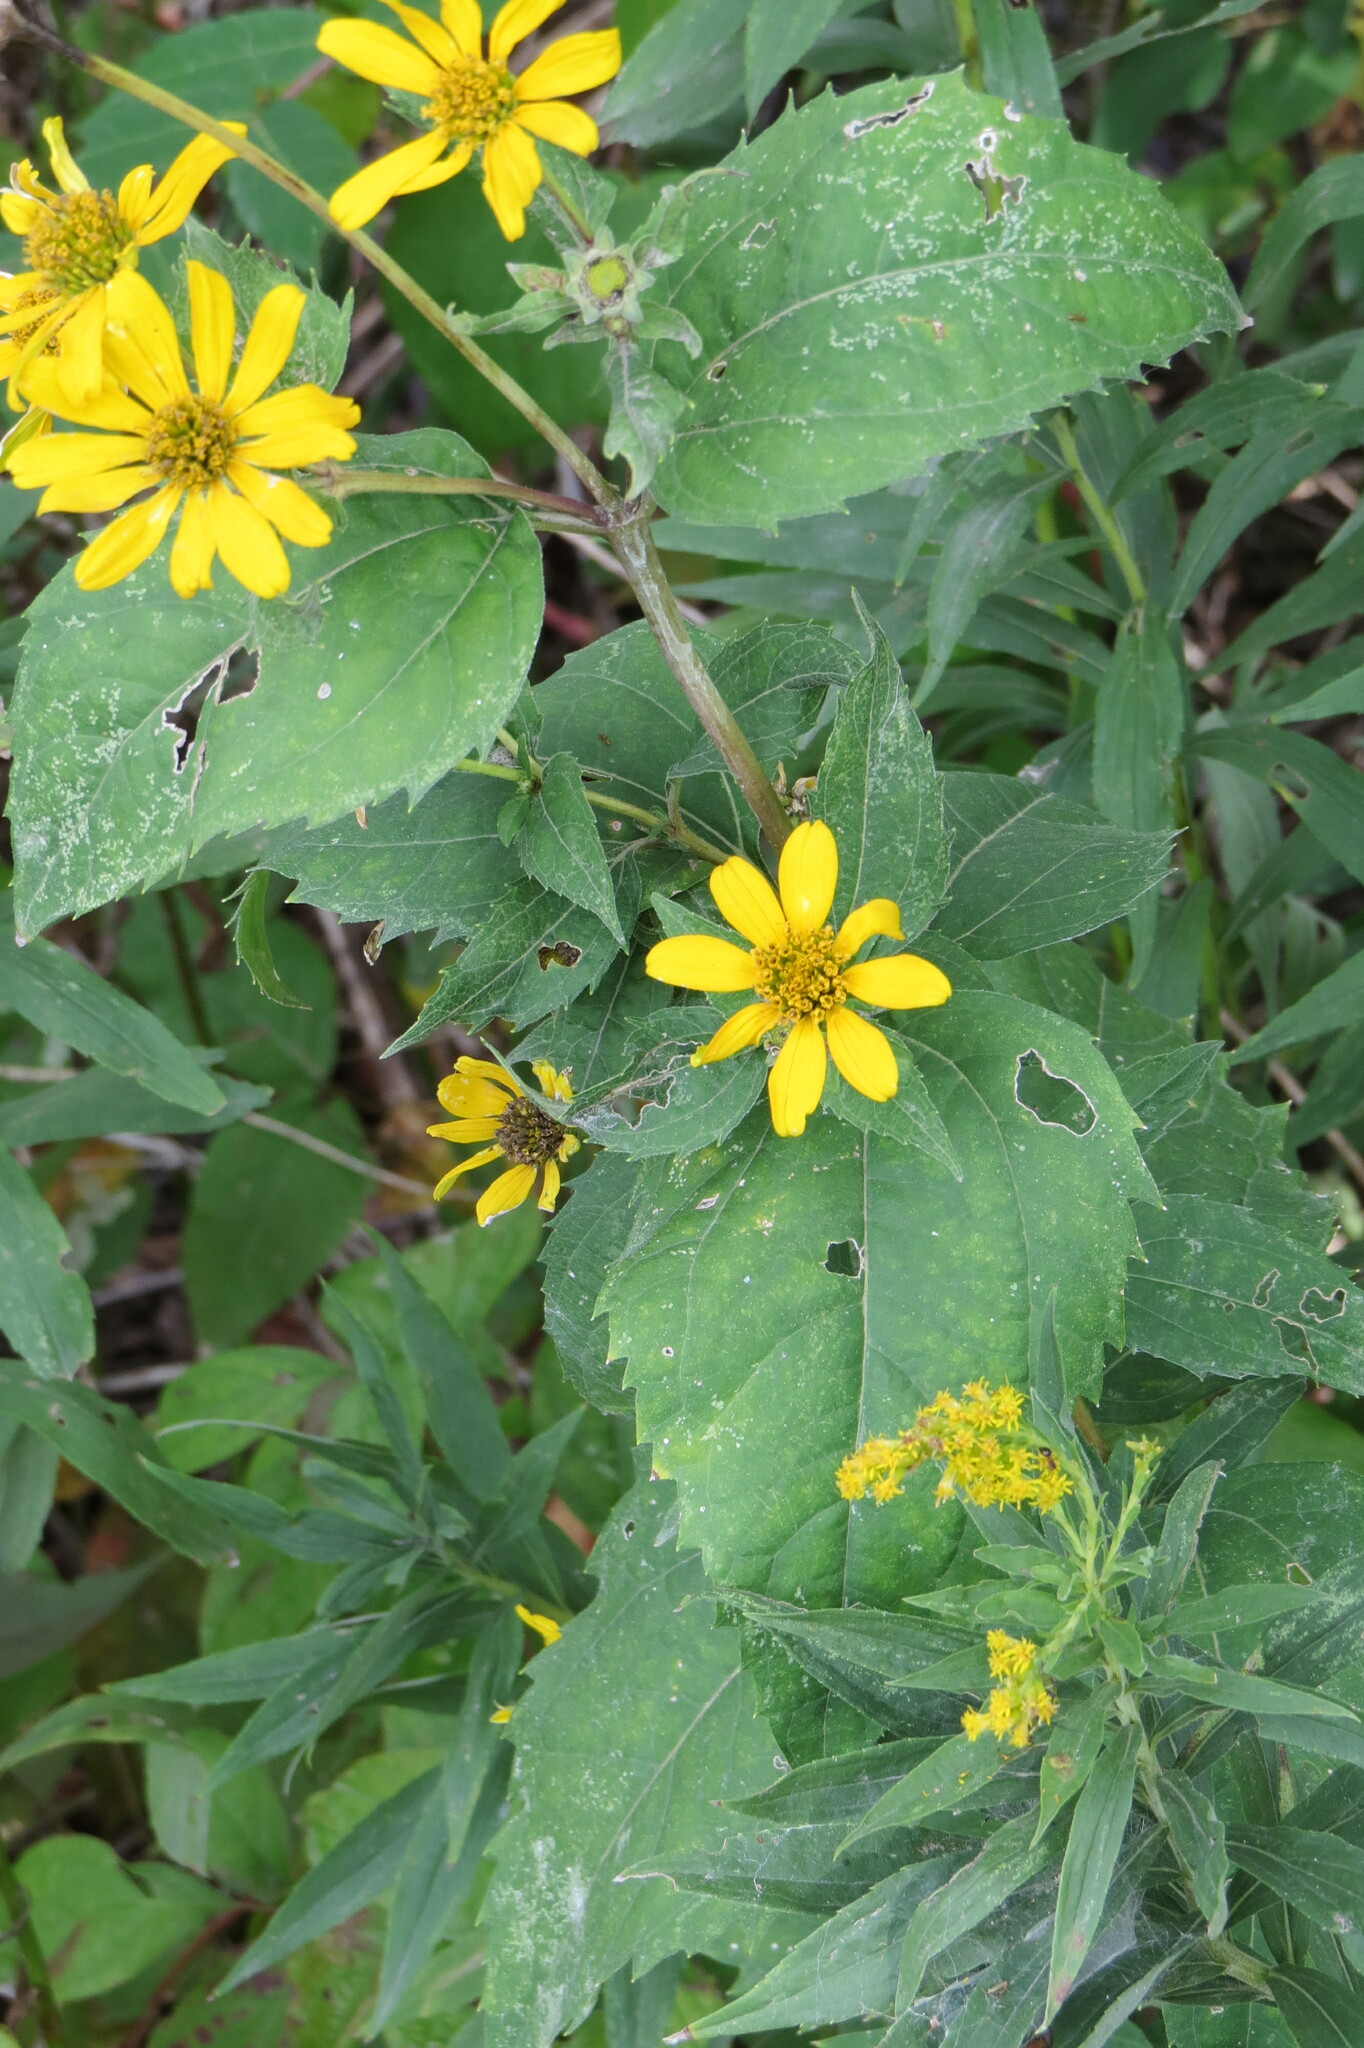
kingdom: Plantae
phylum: Tracheophyta
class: Magnoliopsida
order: Asterales
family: Asteraceae
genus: Heliopsis
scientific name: Heliopsis helianthoides
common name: False sunflower
